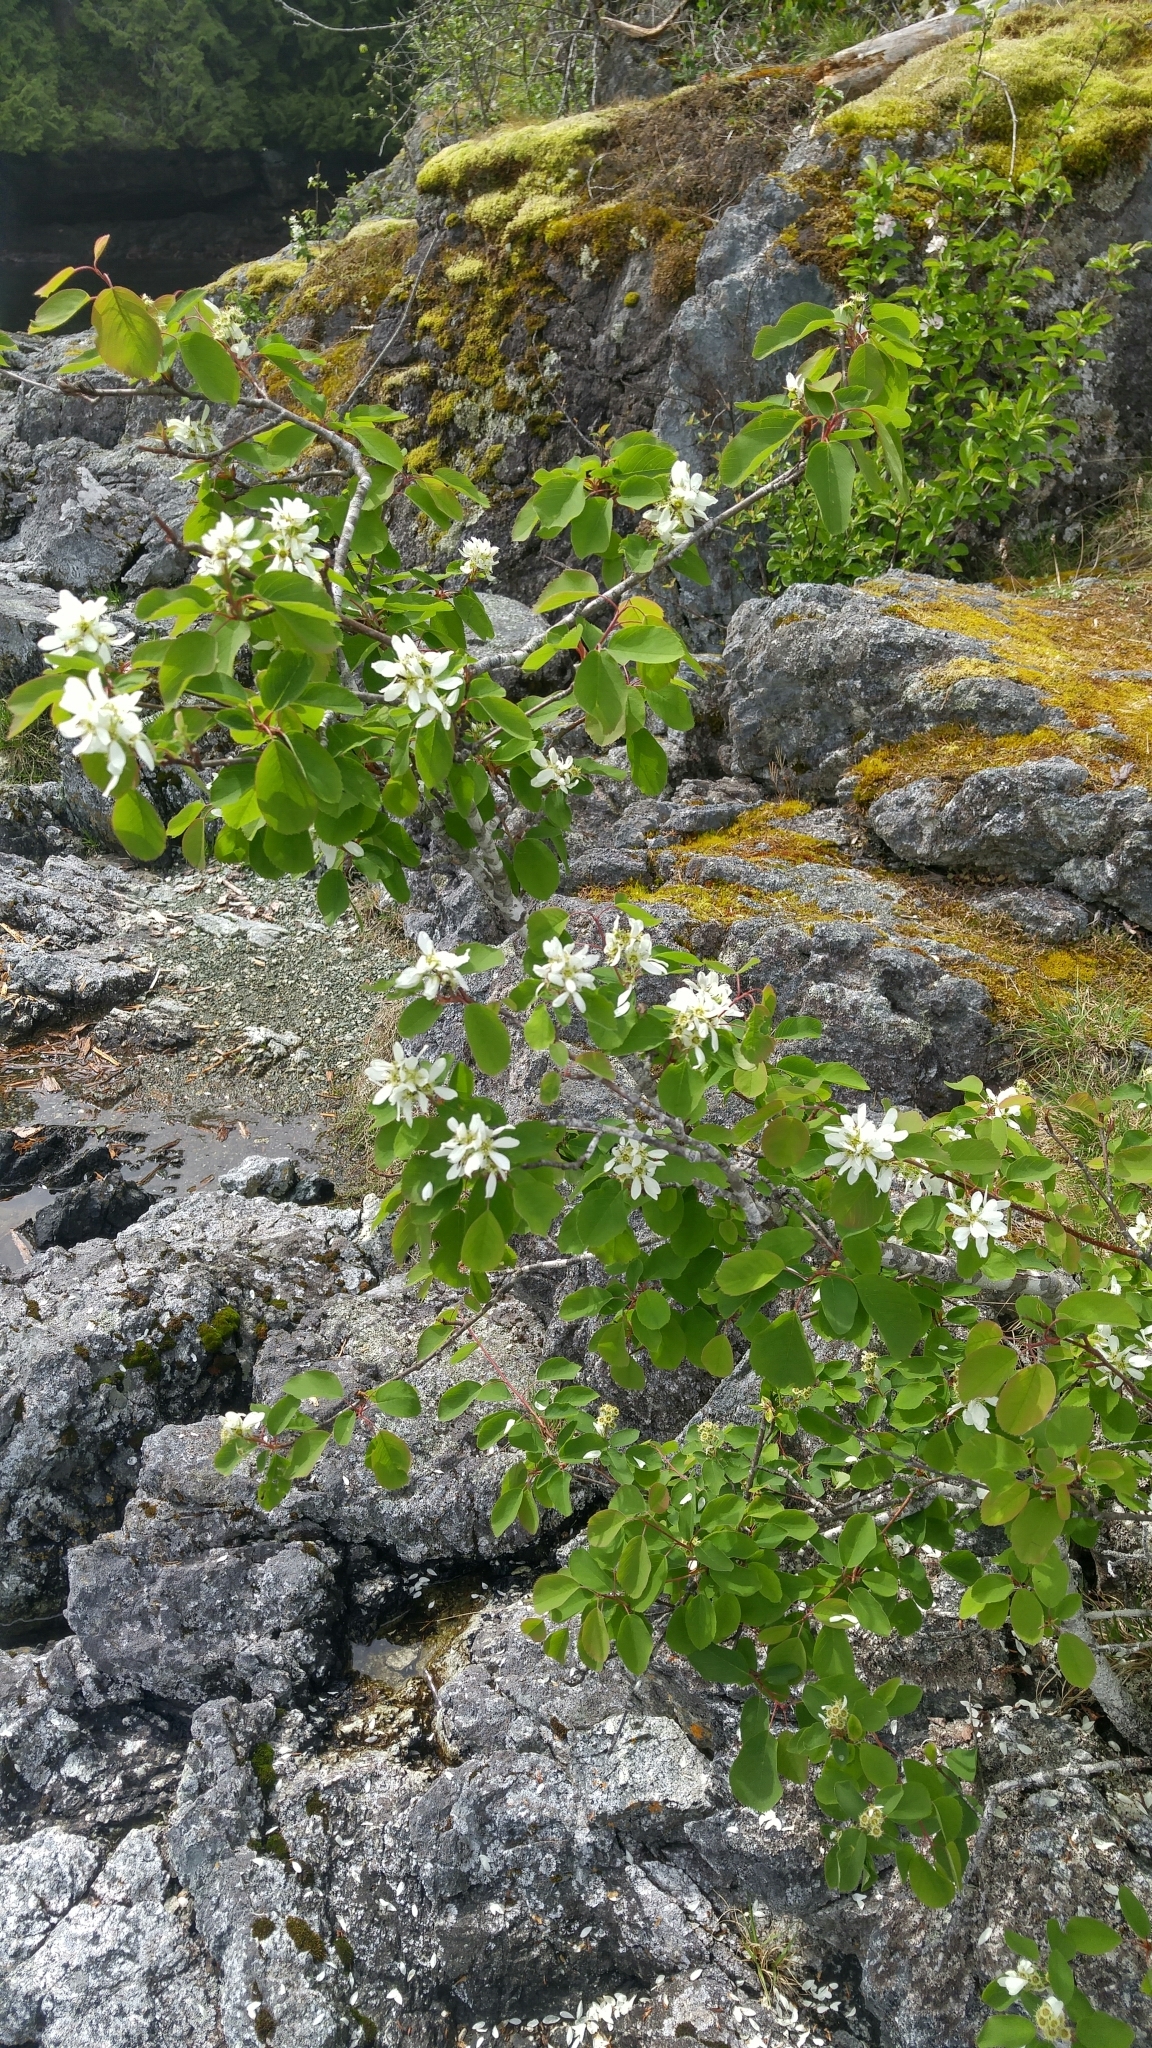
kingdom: Plantae
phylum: Tracheophyta
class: Magnoliopsida
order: Rosales
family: Rosaceae
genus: Amelanchier
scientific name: Amelanchier alnifolia
